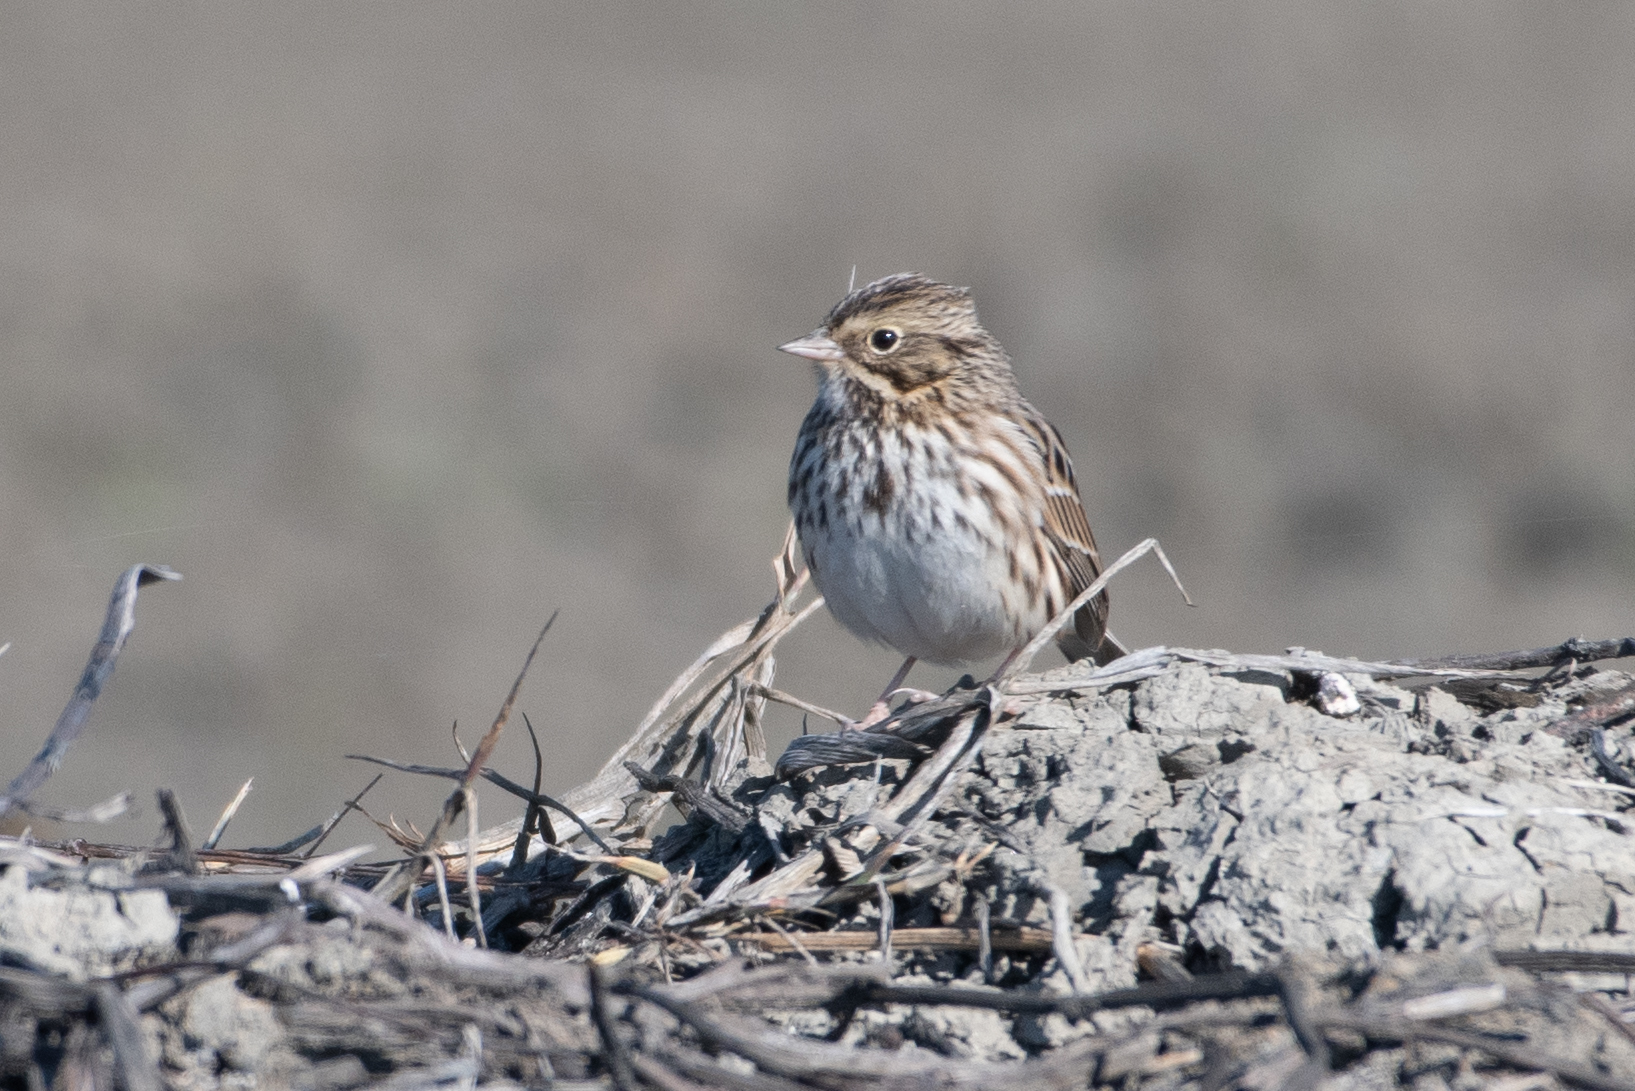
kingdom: Animalia
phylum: Chordata
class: Aves
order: Passeriformes
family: Passerellidae
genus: Passerculus
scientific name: Passerculus sandwichensis
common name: Savannah sparrow
